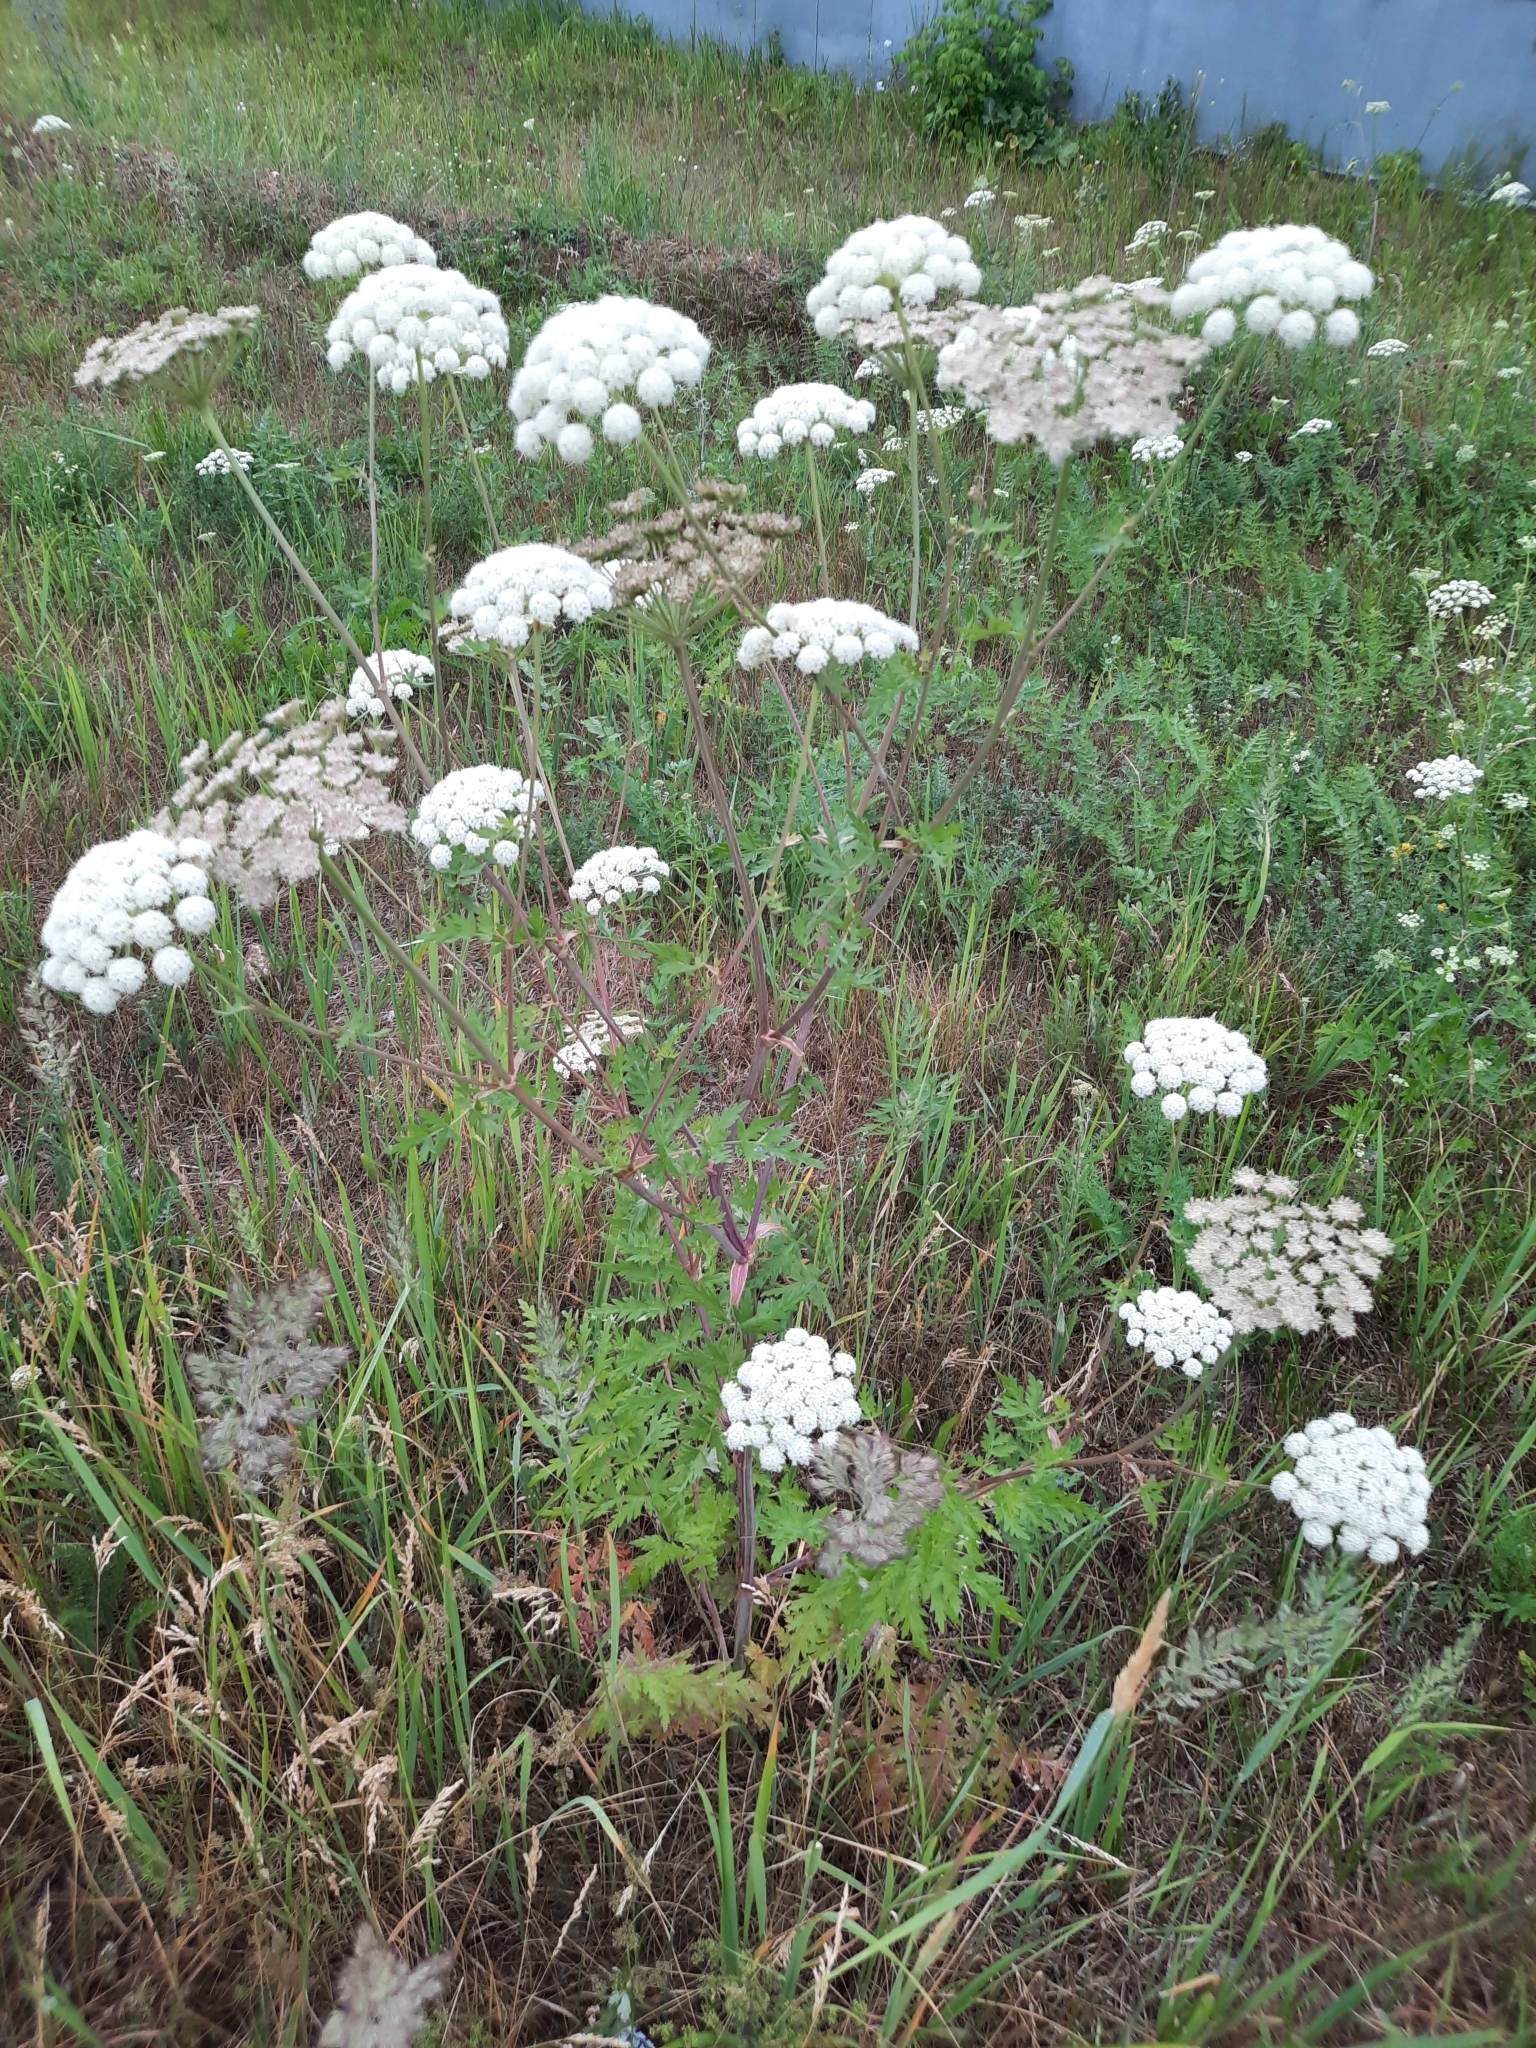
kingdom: Plantae
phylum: Tracheophyta
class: Magnoliopsida
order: Apiales
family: Apiaceae
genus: Seseli
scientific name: Seseli libanotis
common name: Mooncarrot
